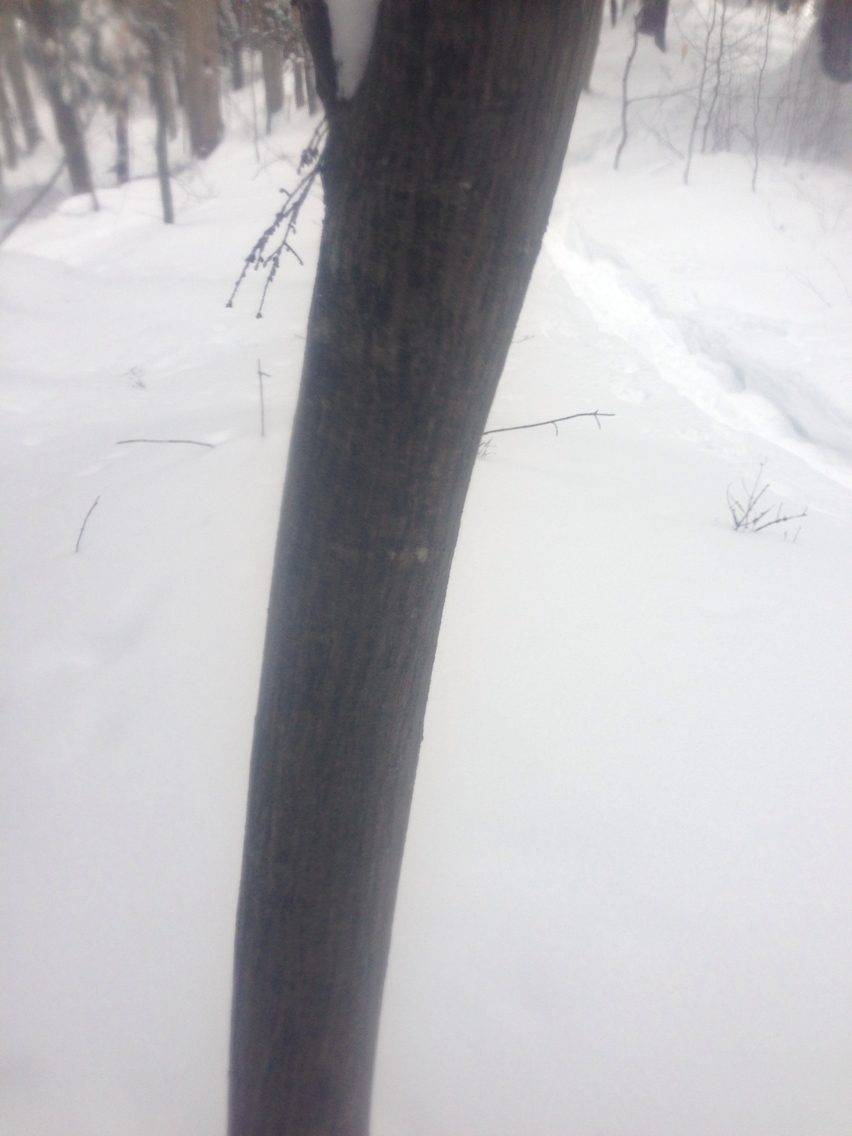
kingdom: Plantae
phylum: Tracheophyta
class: Magnoliopsida
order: Sapindales
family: Sapindaceae
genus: Acer
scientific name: Acer pensylvanicum
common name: Moosewood
